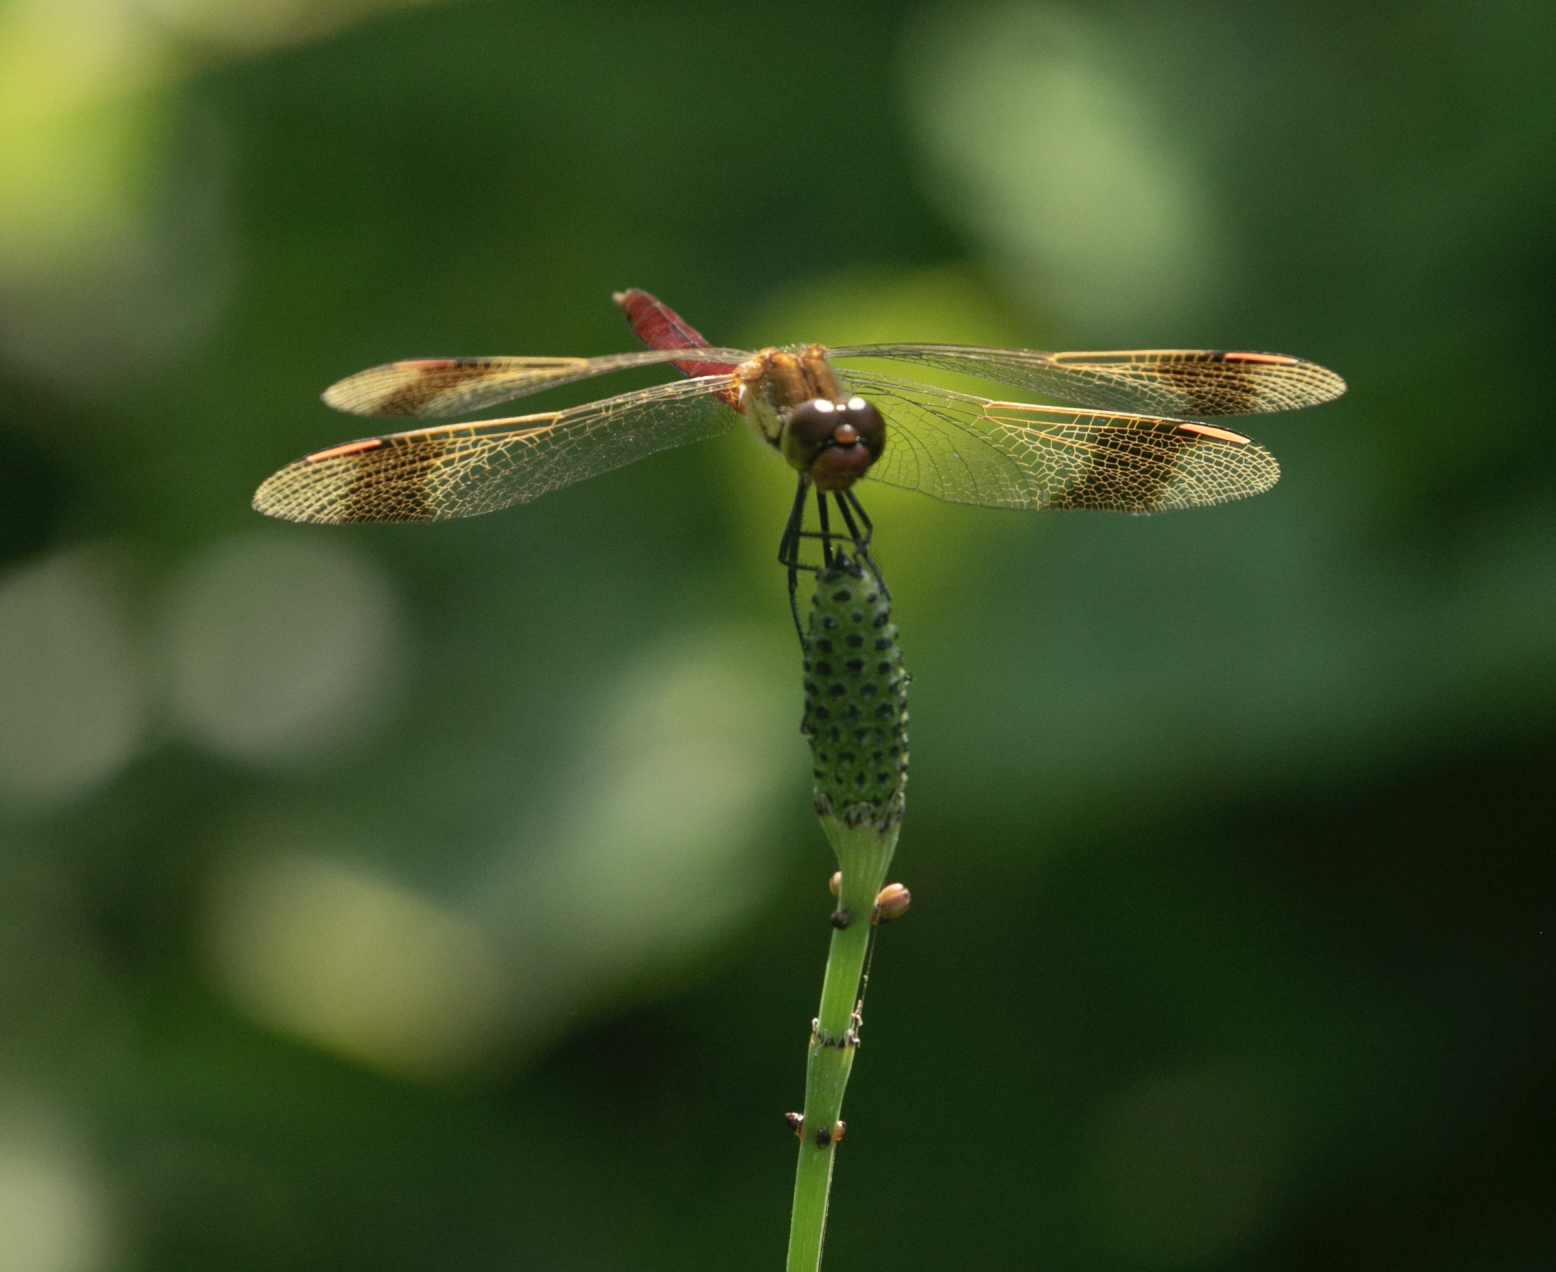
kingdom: Animalia
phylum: Arthropoda
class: Insecta
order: Odonata
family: Libellulidae
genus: Sympetrum
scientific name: Sympetrum pedemontanum
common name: Banded darter
